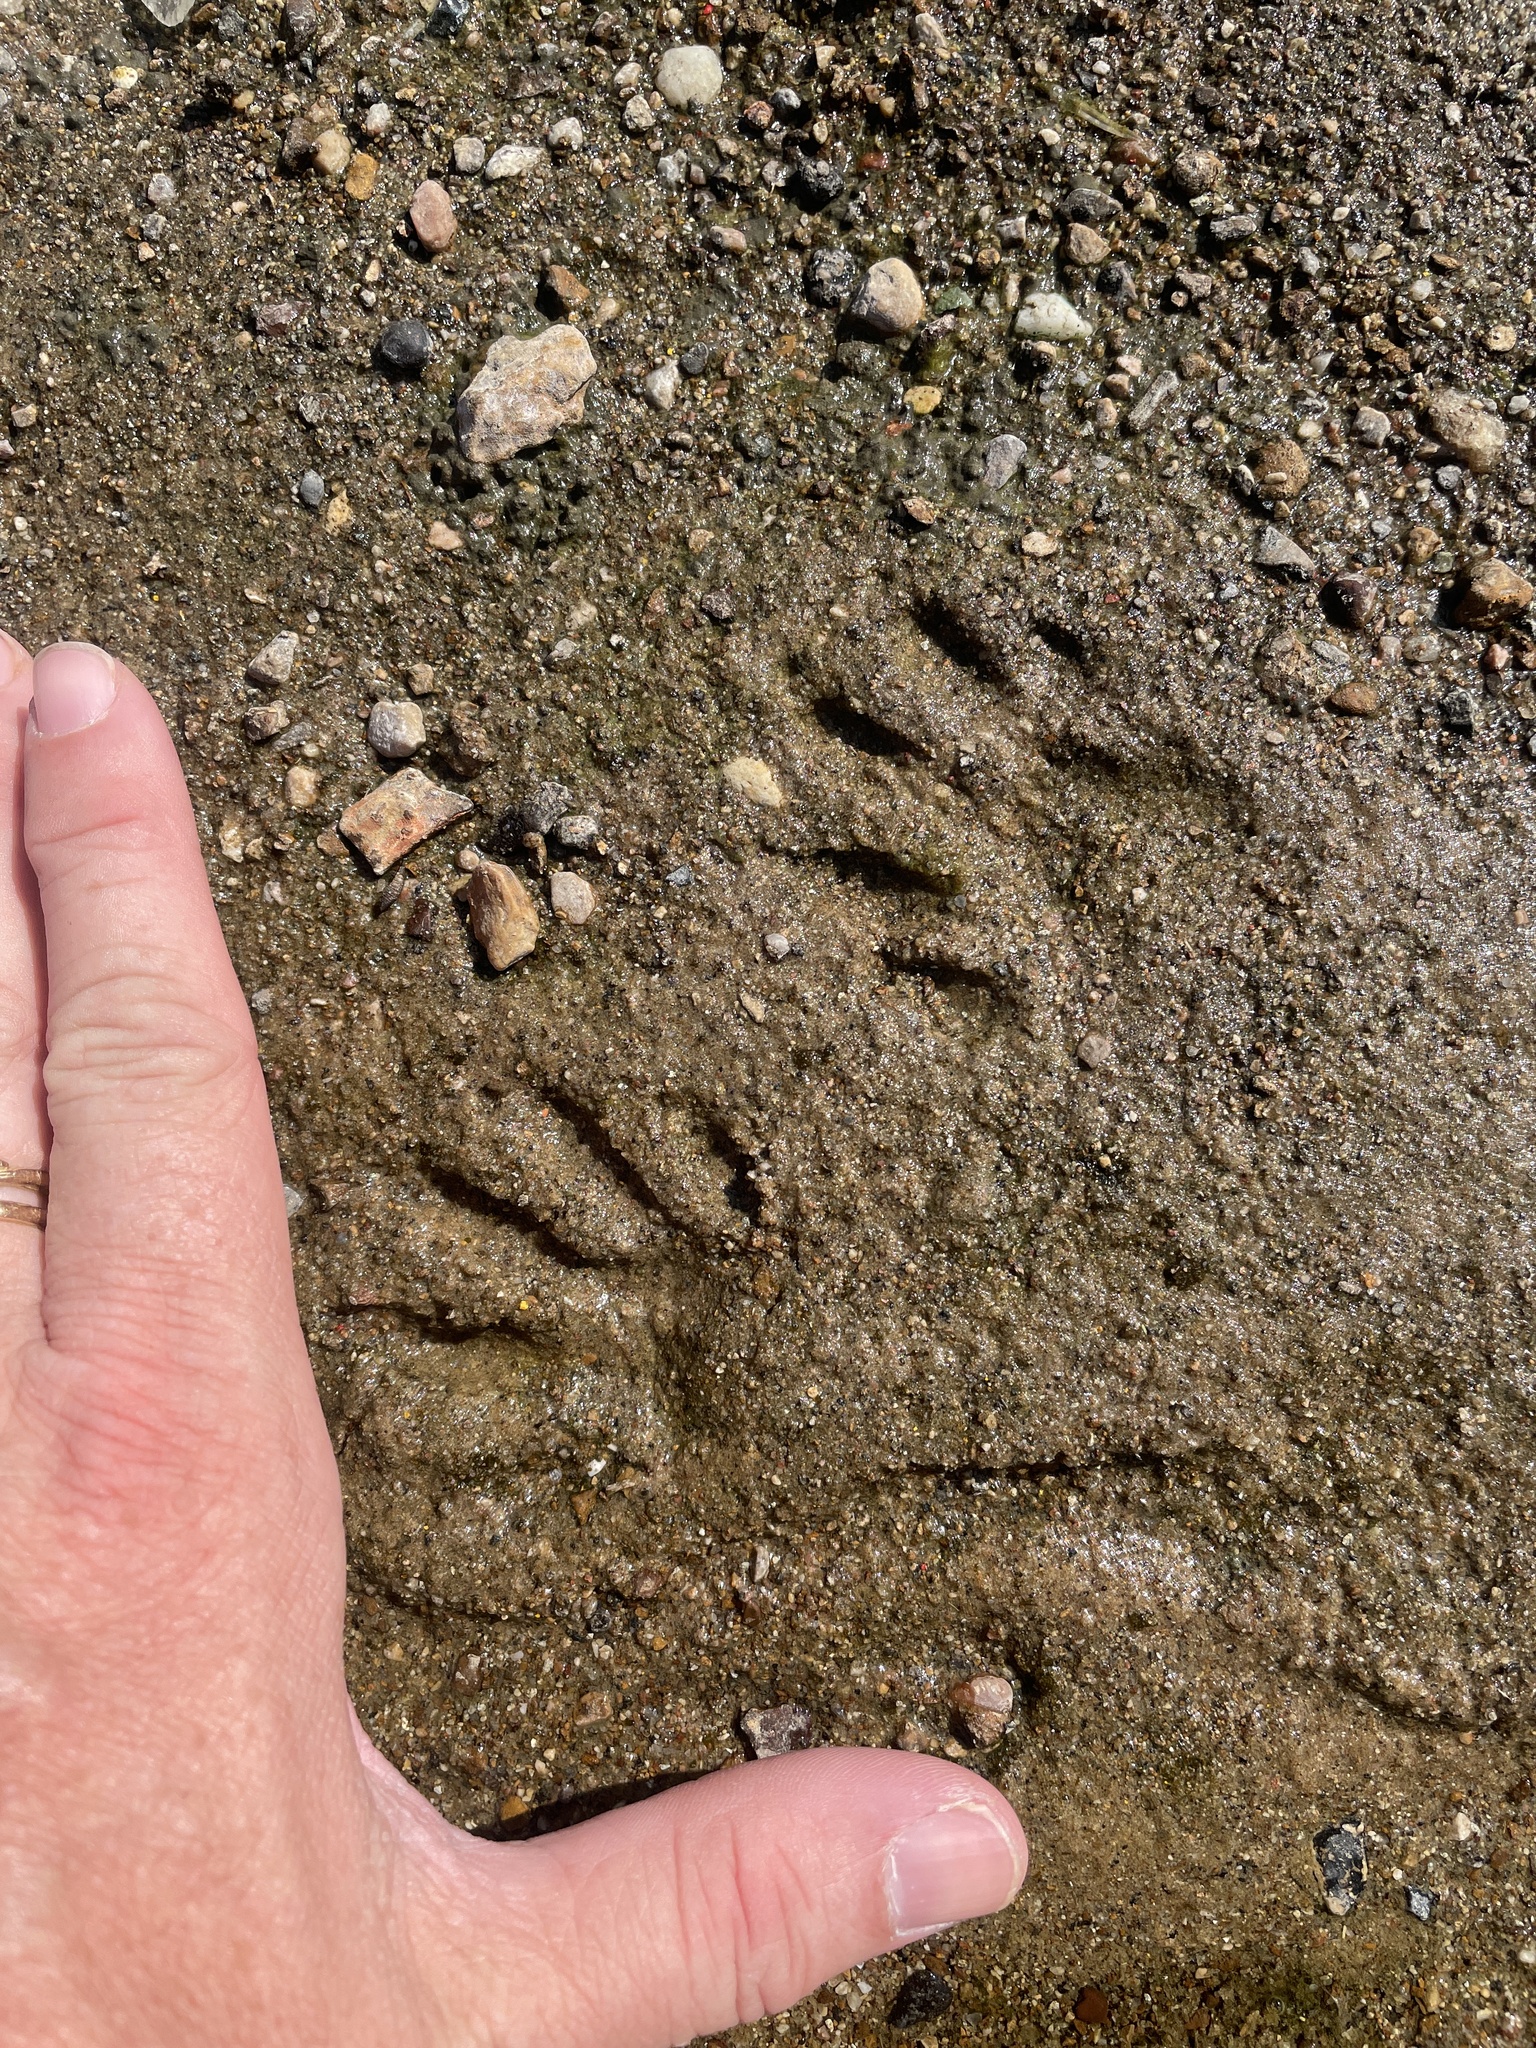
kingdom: Animalia
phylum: Chordata
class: Mammalia
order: Carnivora
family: Procyonidae
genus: Procyon
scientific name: Procyon lotor
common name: Raccoon
